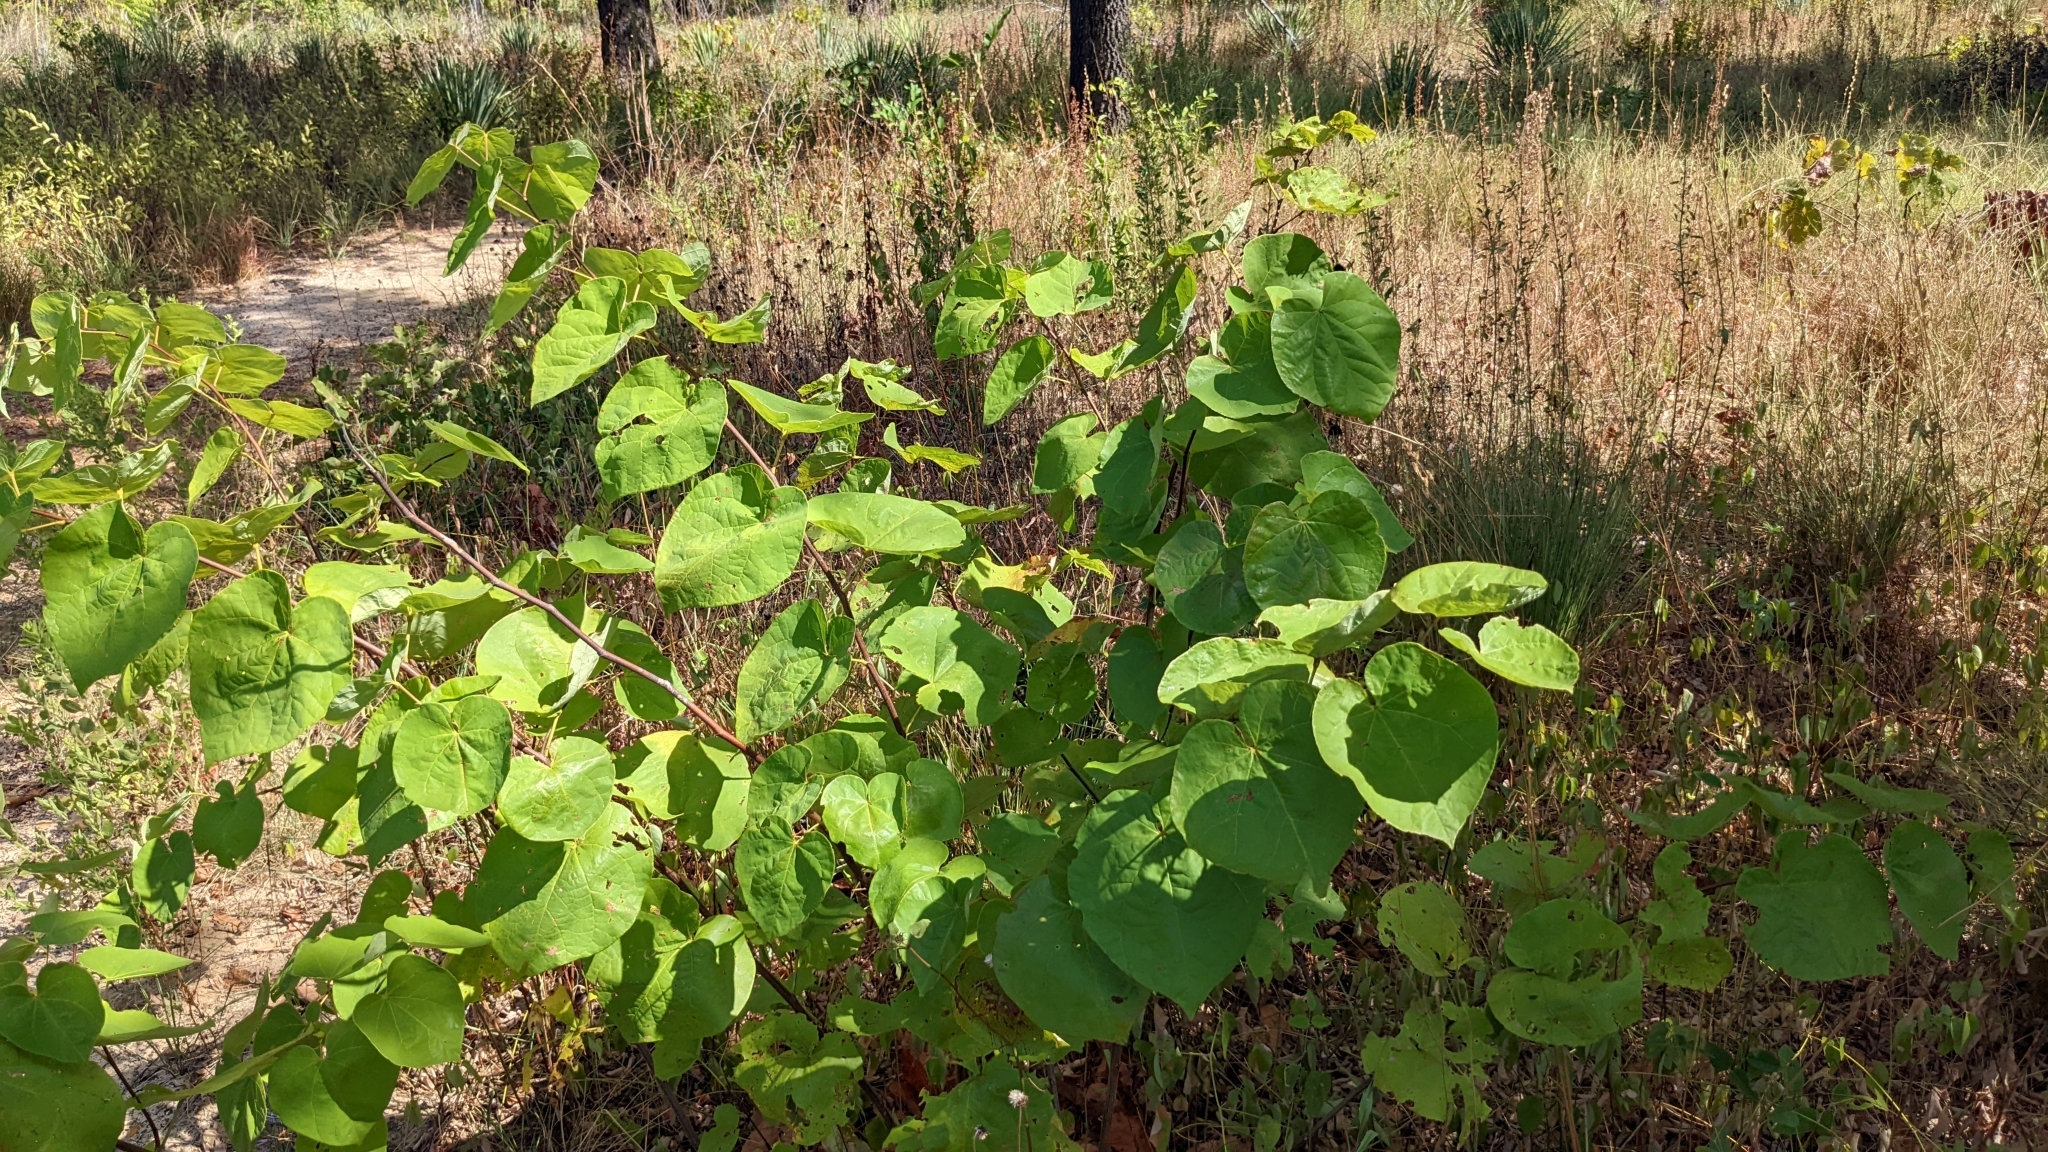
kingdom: Plantae
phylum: Tracheophyta
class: Magnoliopsida
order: Fabales
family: Fabaceae
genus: Cercis
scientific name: Cercis canadensis
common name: Eastern redbud
